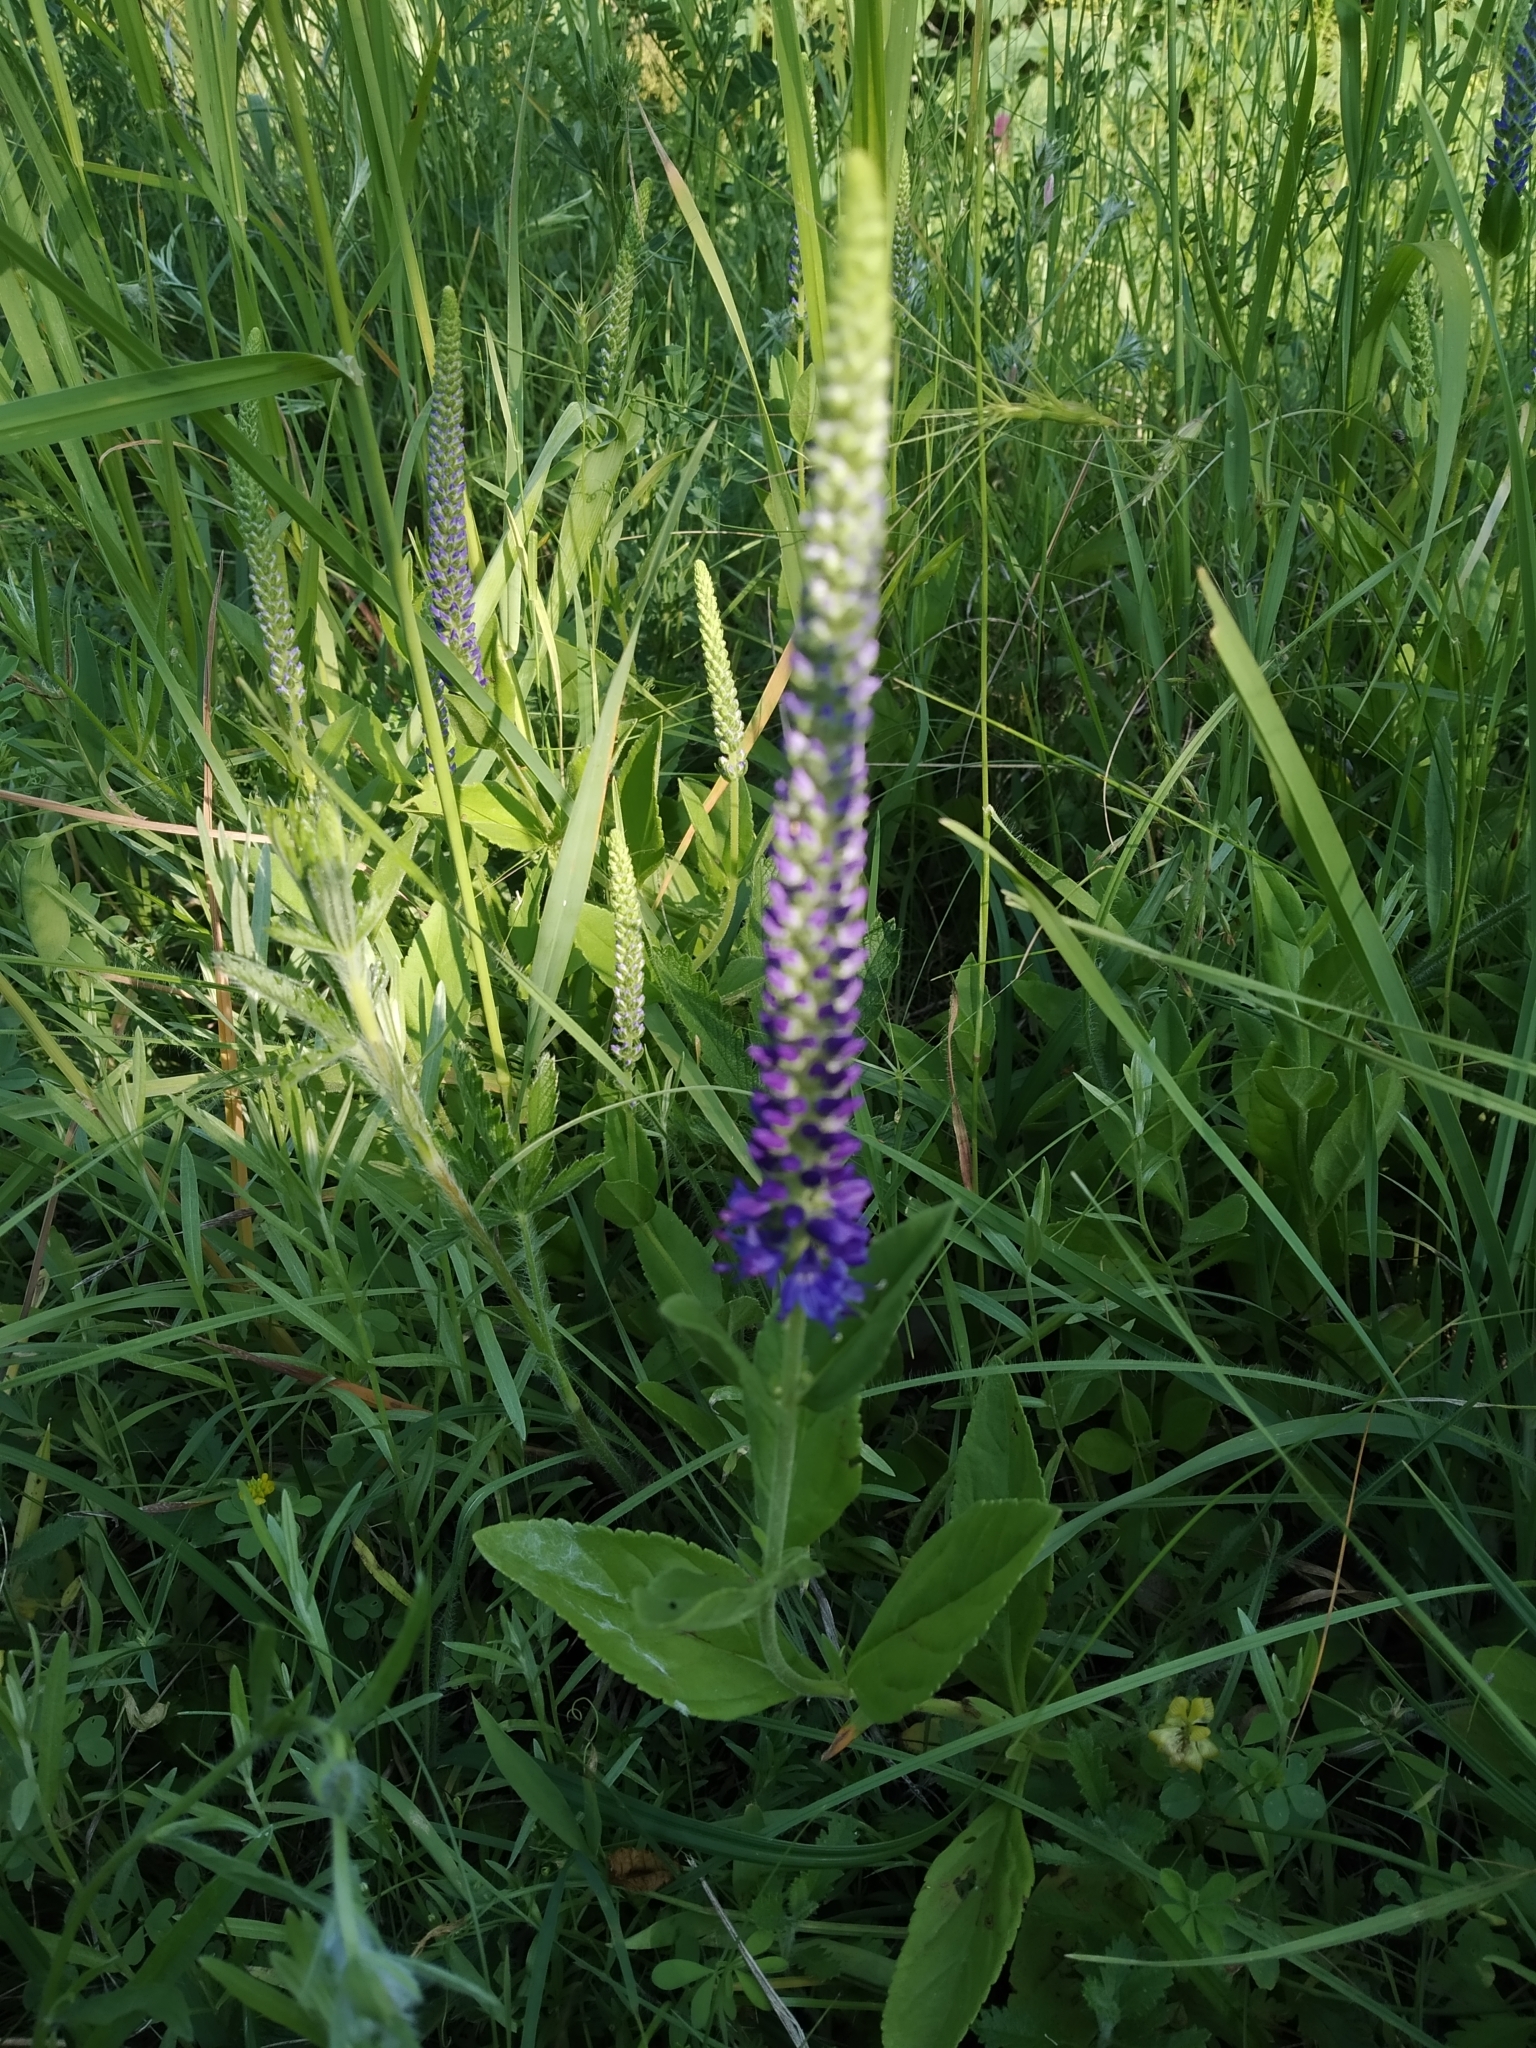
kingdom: Plantae
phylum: Tracheophyta
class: Magnoliopsida
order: Lamiales
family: Plantaginaceae
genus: Veronica
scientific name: Veronica barrelieri
